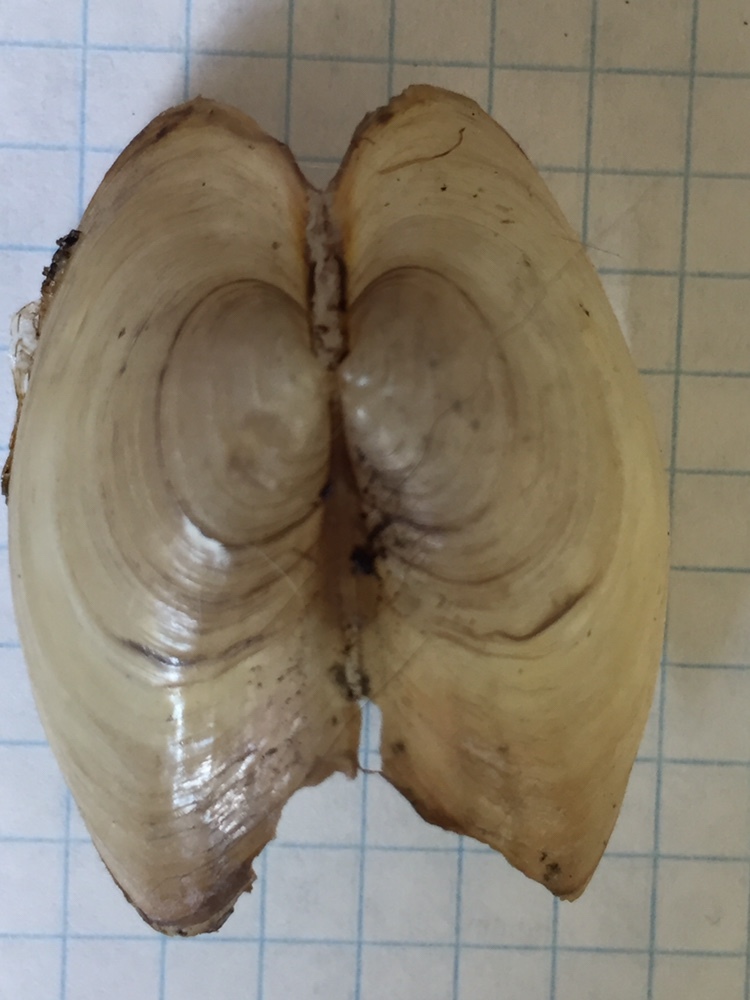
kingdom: Animalia
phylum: Mollusca
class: Bivalvia
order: Unionida
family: Unionidae
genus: Pyganodon
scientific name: Pyganodon grandis
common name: Giant floater
